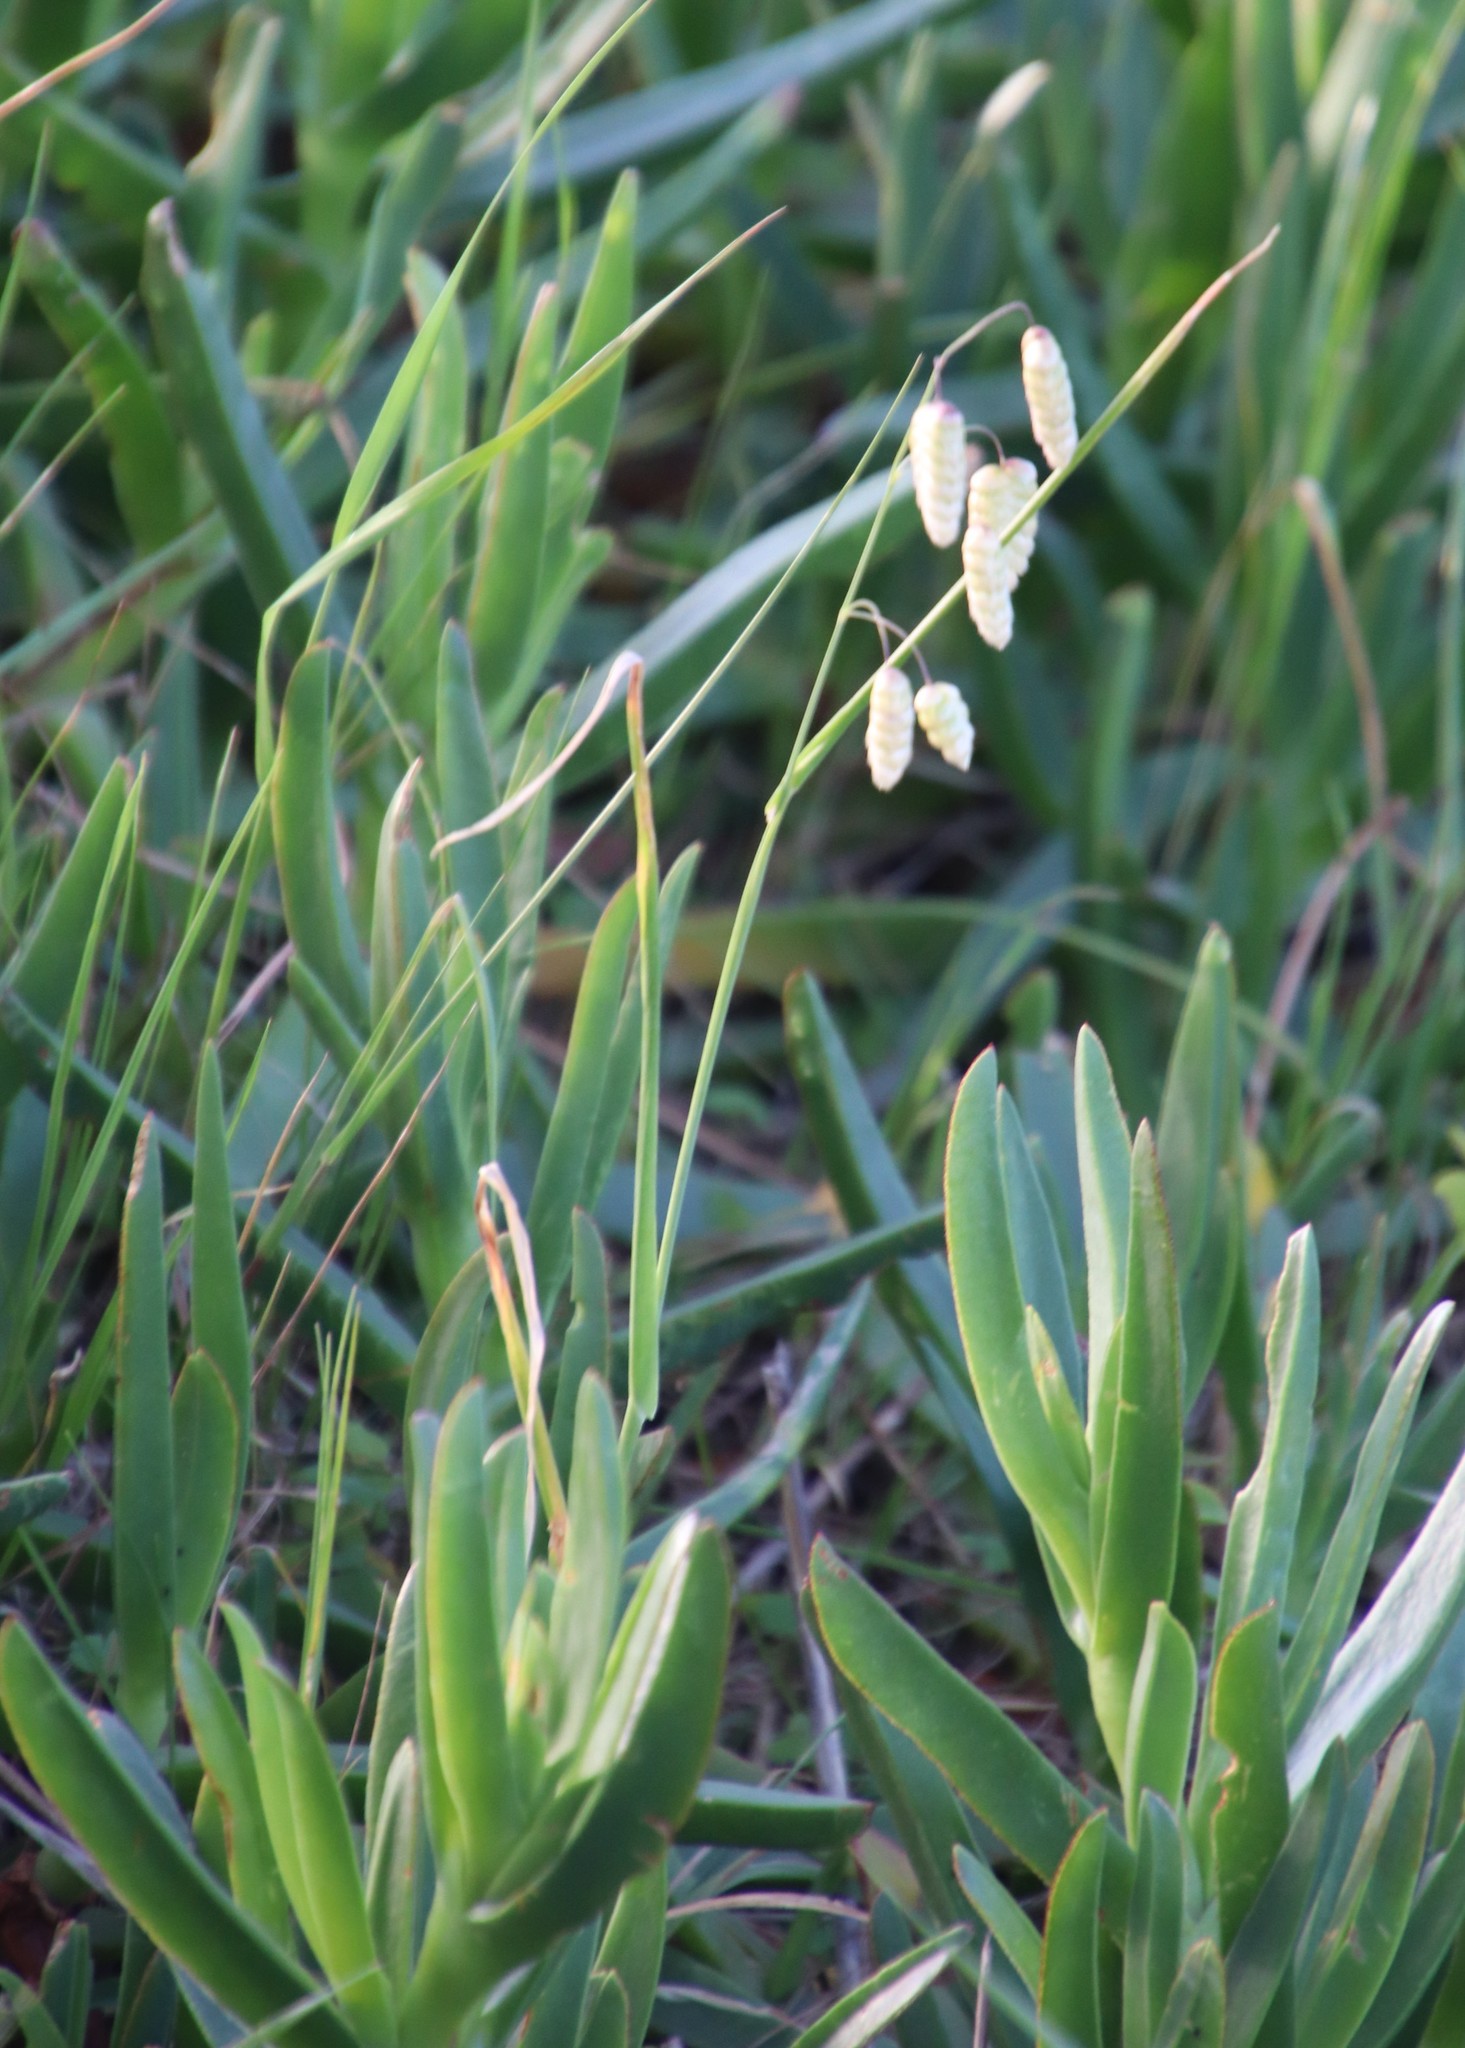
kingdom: Plantae
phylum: Tracheophyta
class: Liliopsida
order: Poales
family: Poaceae
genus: Briza
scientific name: Briza maxima
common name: Big quakinggrass
